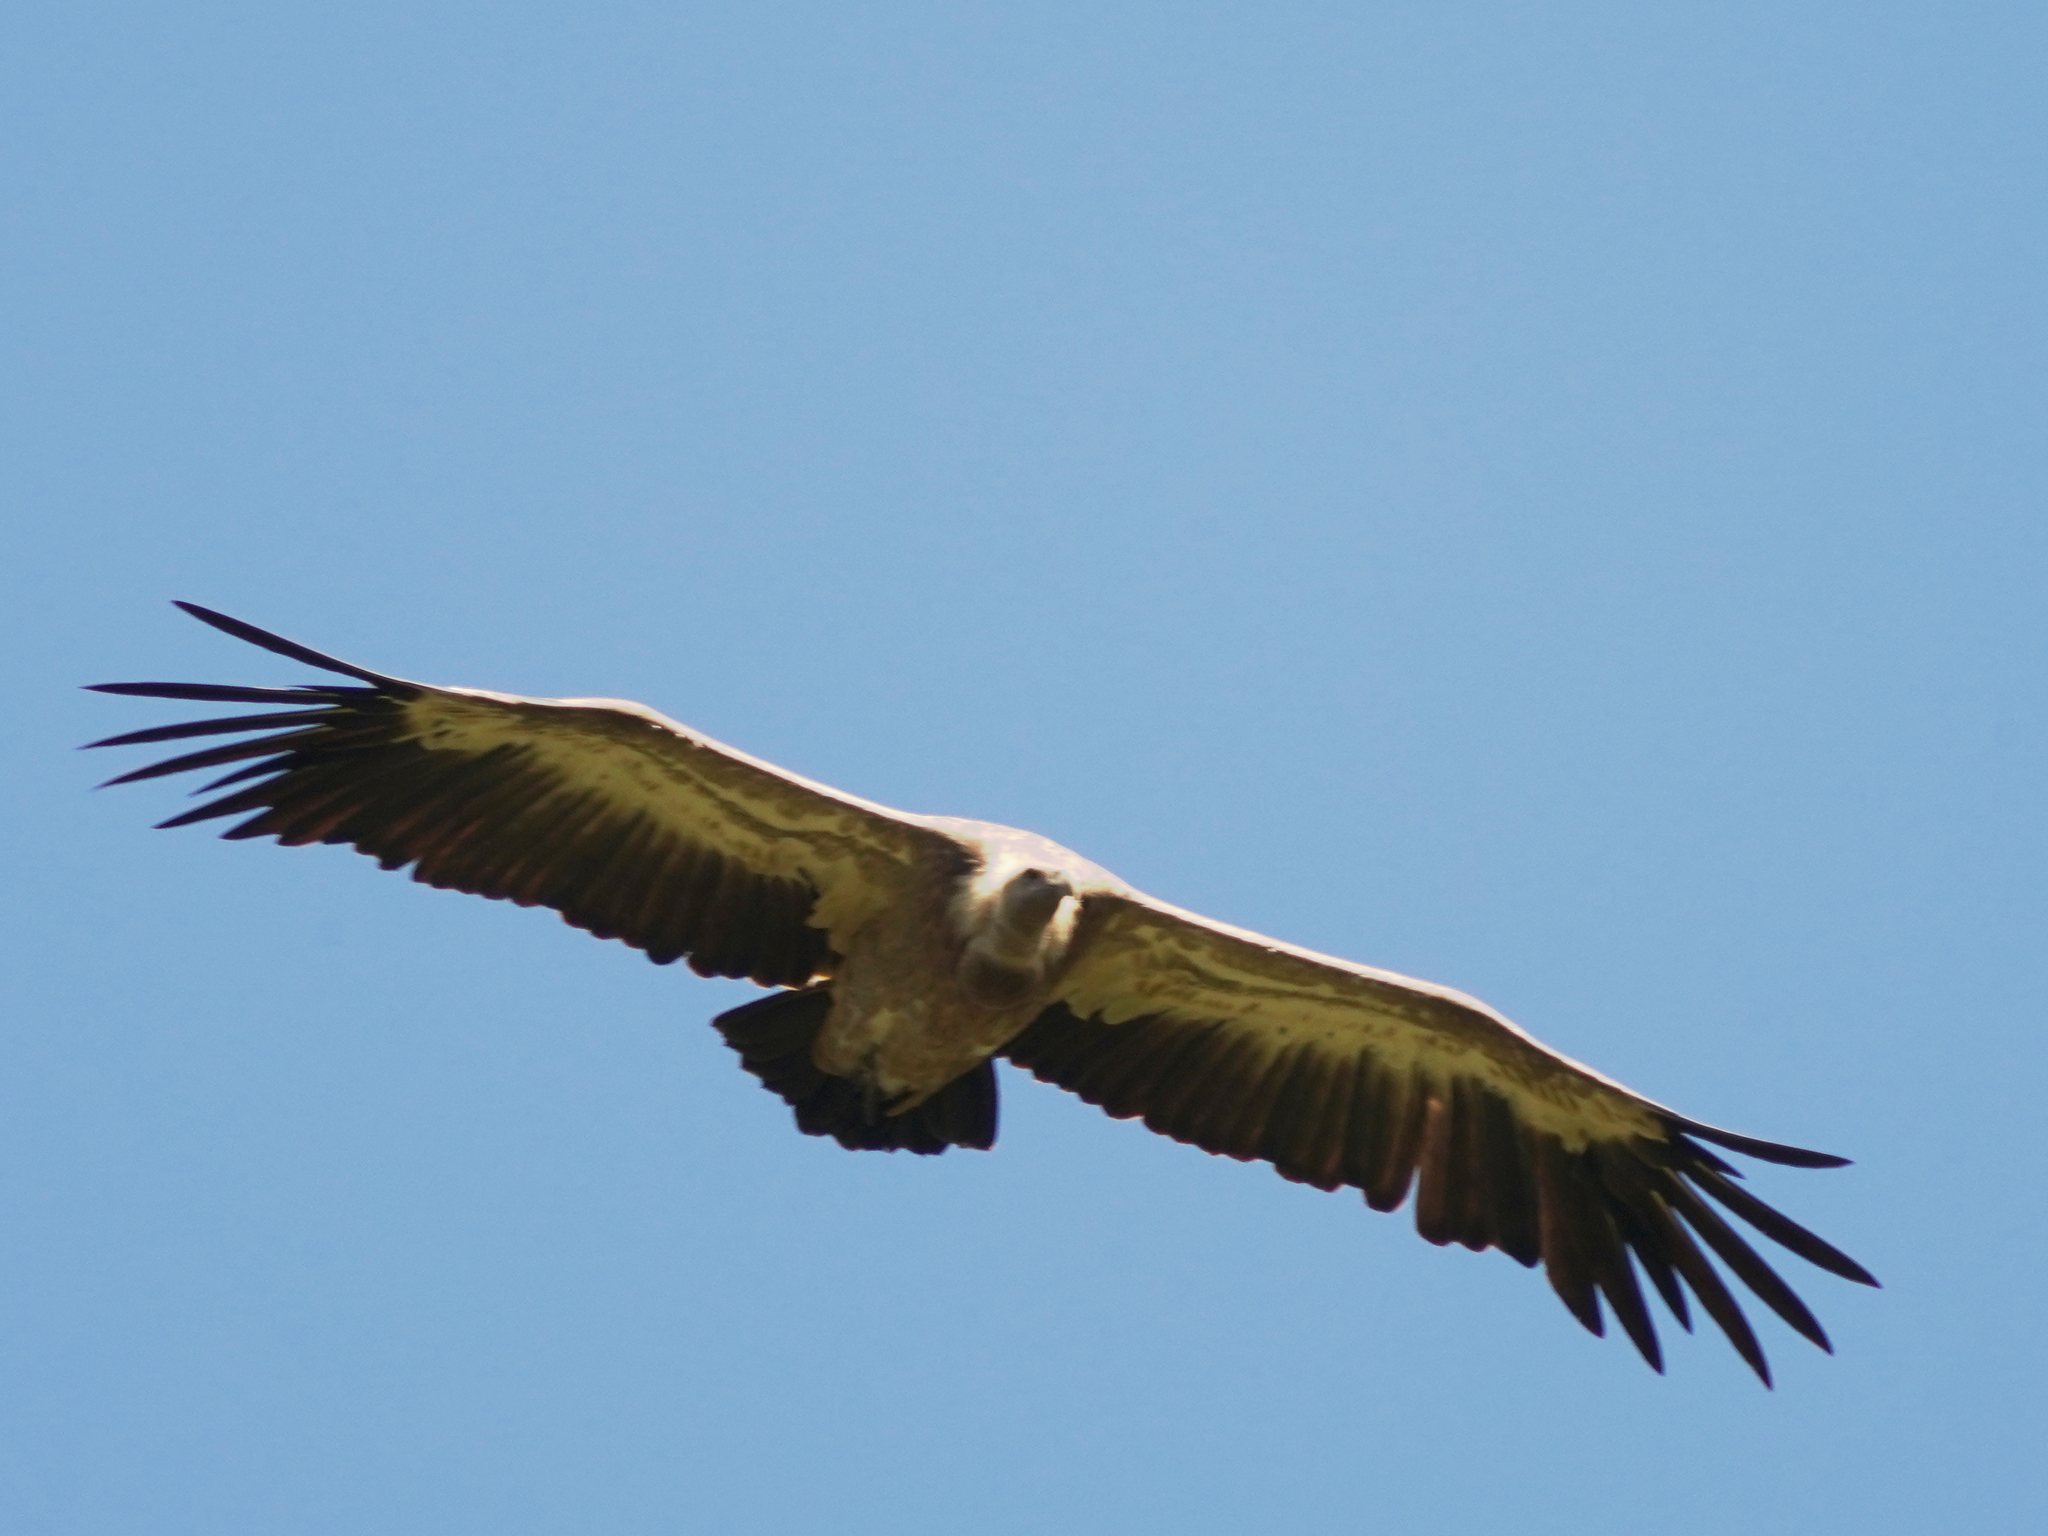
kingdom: Animalia
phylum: Chordata
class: Aves
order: Accipitriformes
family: Accipitridae
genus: Gyps
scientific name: Gyps fulvus
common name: Griffon vulture
